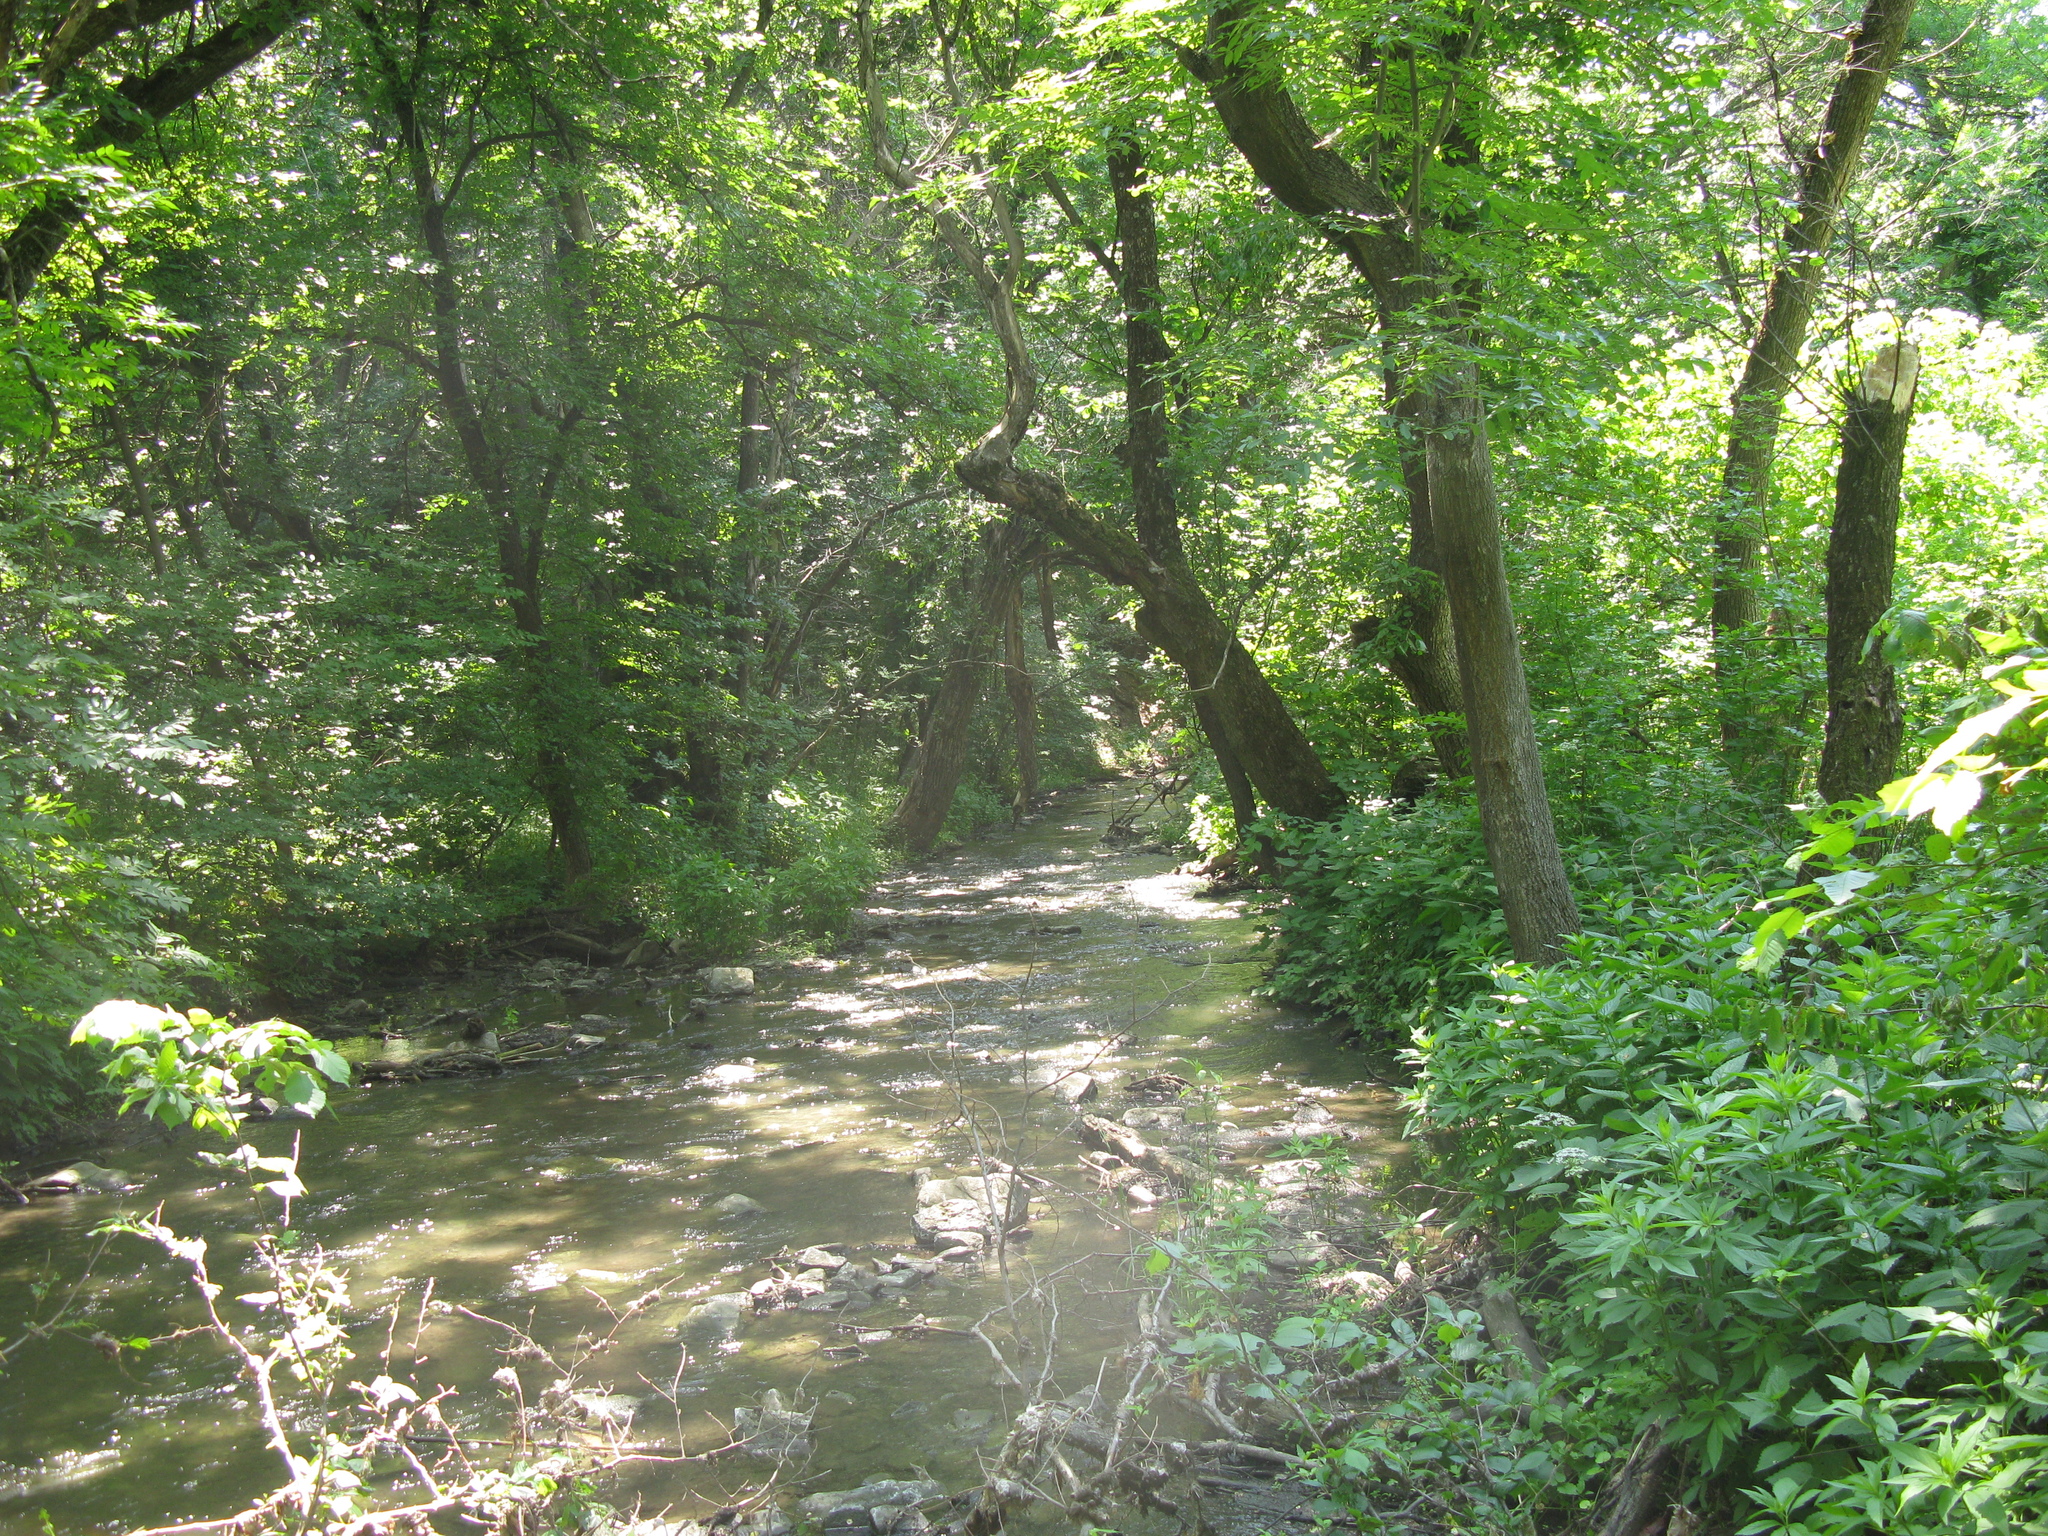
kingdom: Plantae
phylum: Tracheophyta
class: Magnoliopsida
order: Asterales
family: Asteraceae
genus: Eupatorium
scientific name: Eupatorium cannabinum
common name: Hemp-agrimony
